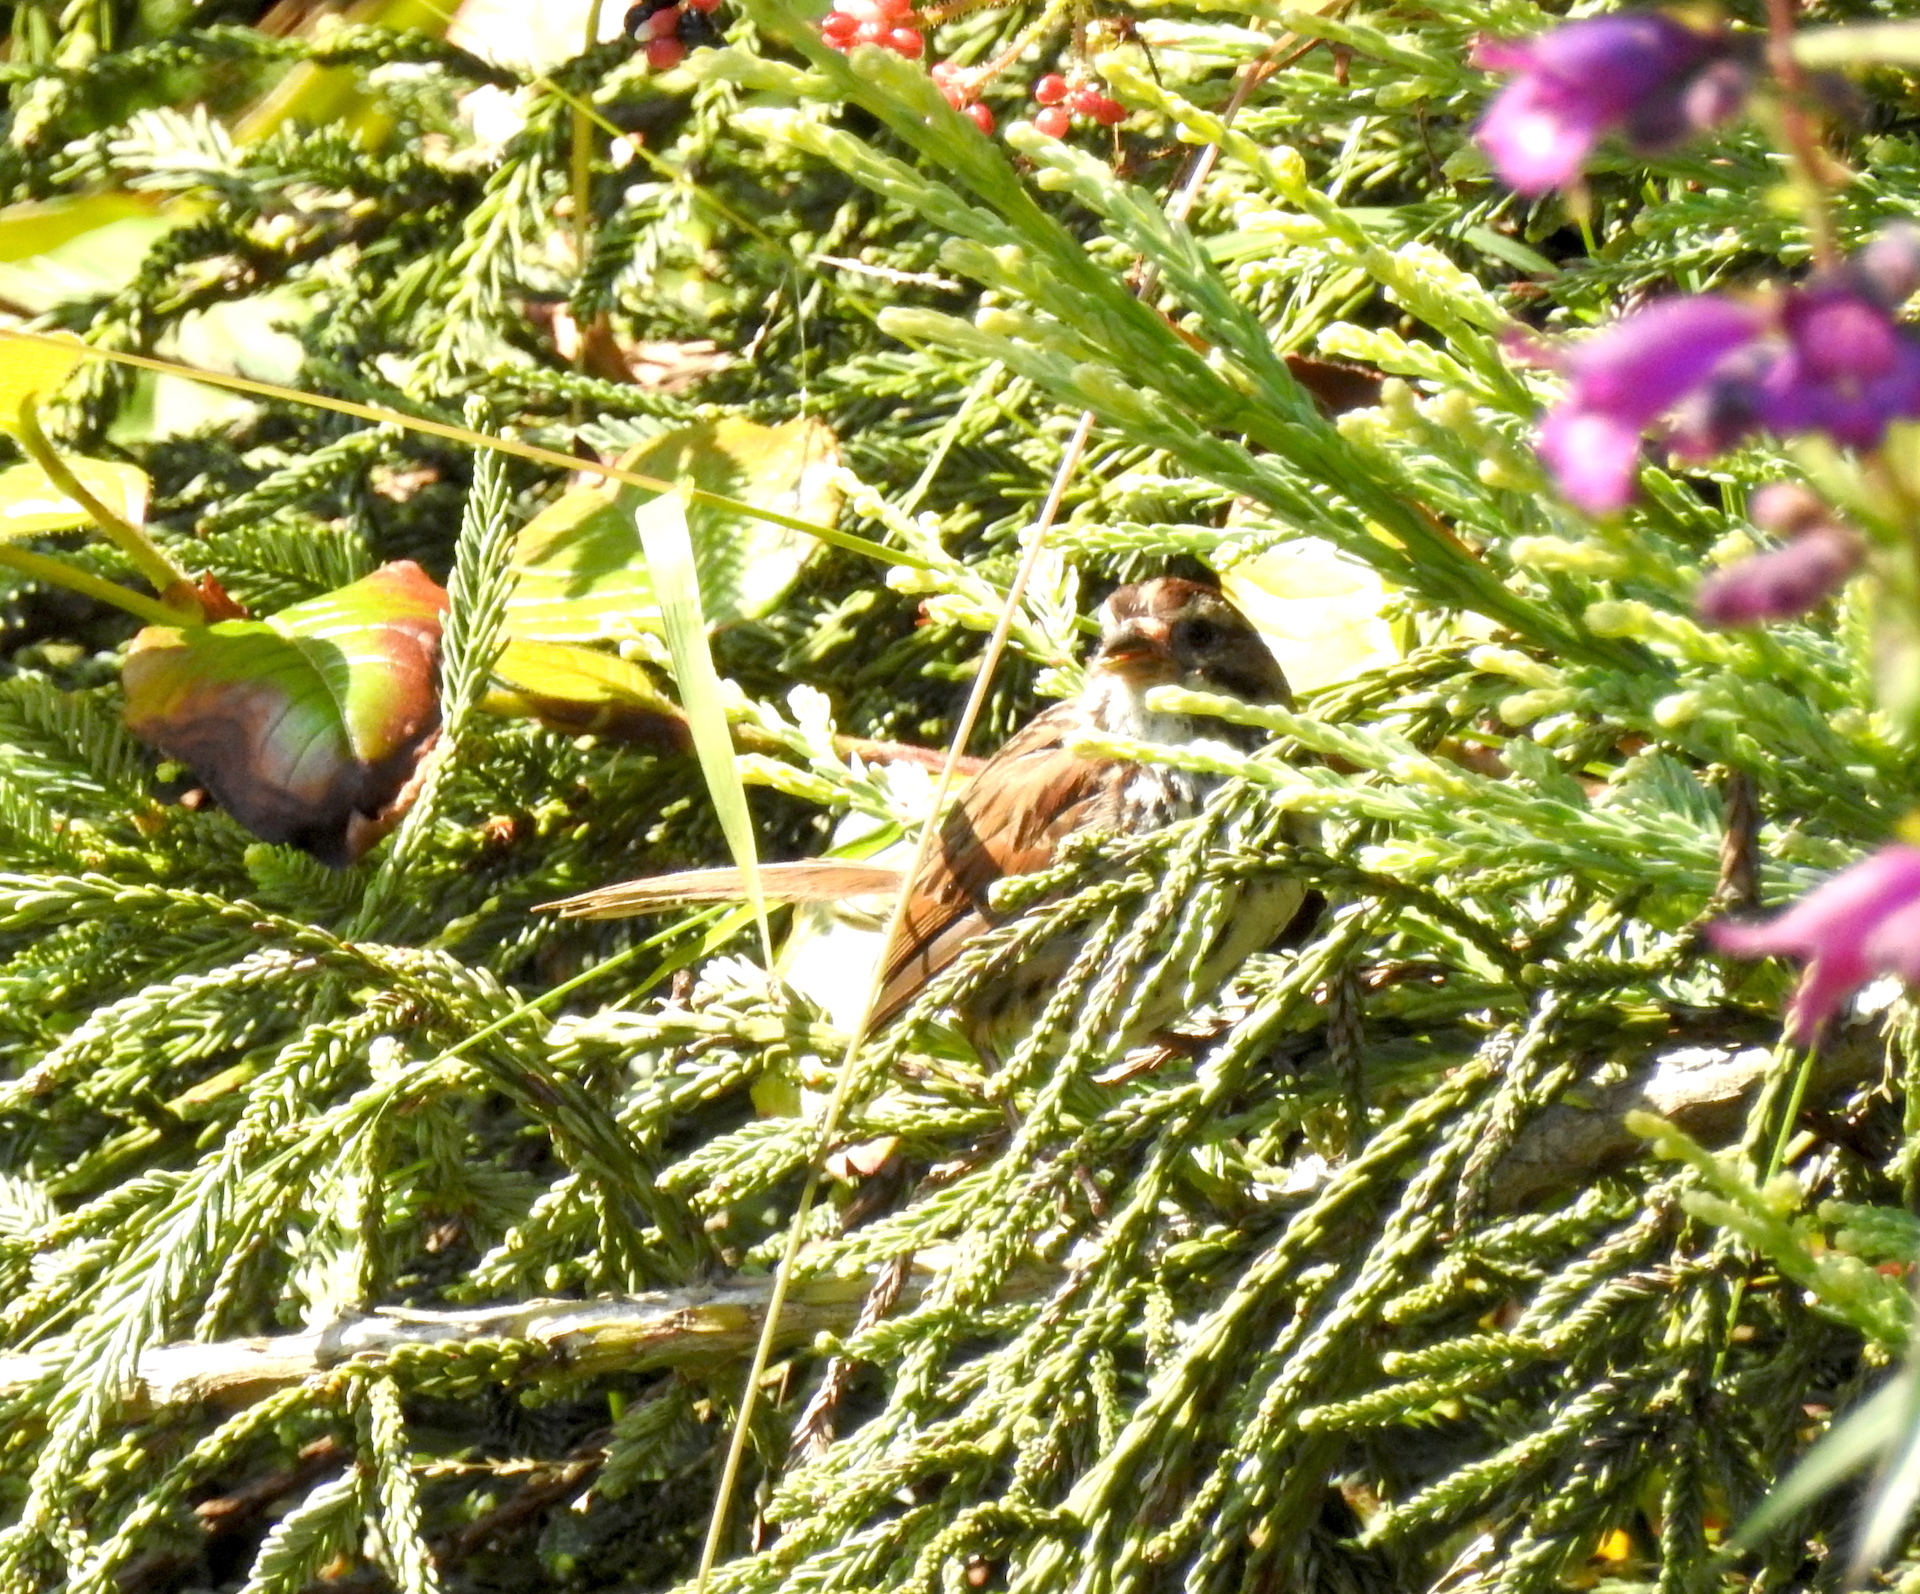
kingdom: Animalia
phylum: Chordata
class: Aves
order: Passeriformes
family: Passerellidae
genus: Melospiza
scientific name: Melospiza melodia
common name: Song sparrow
